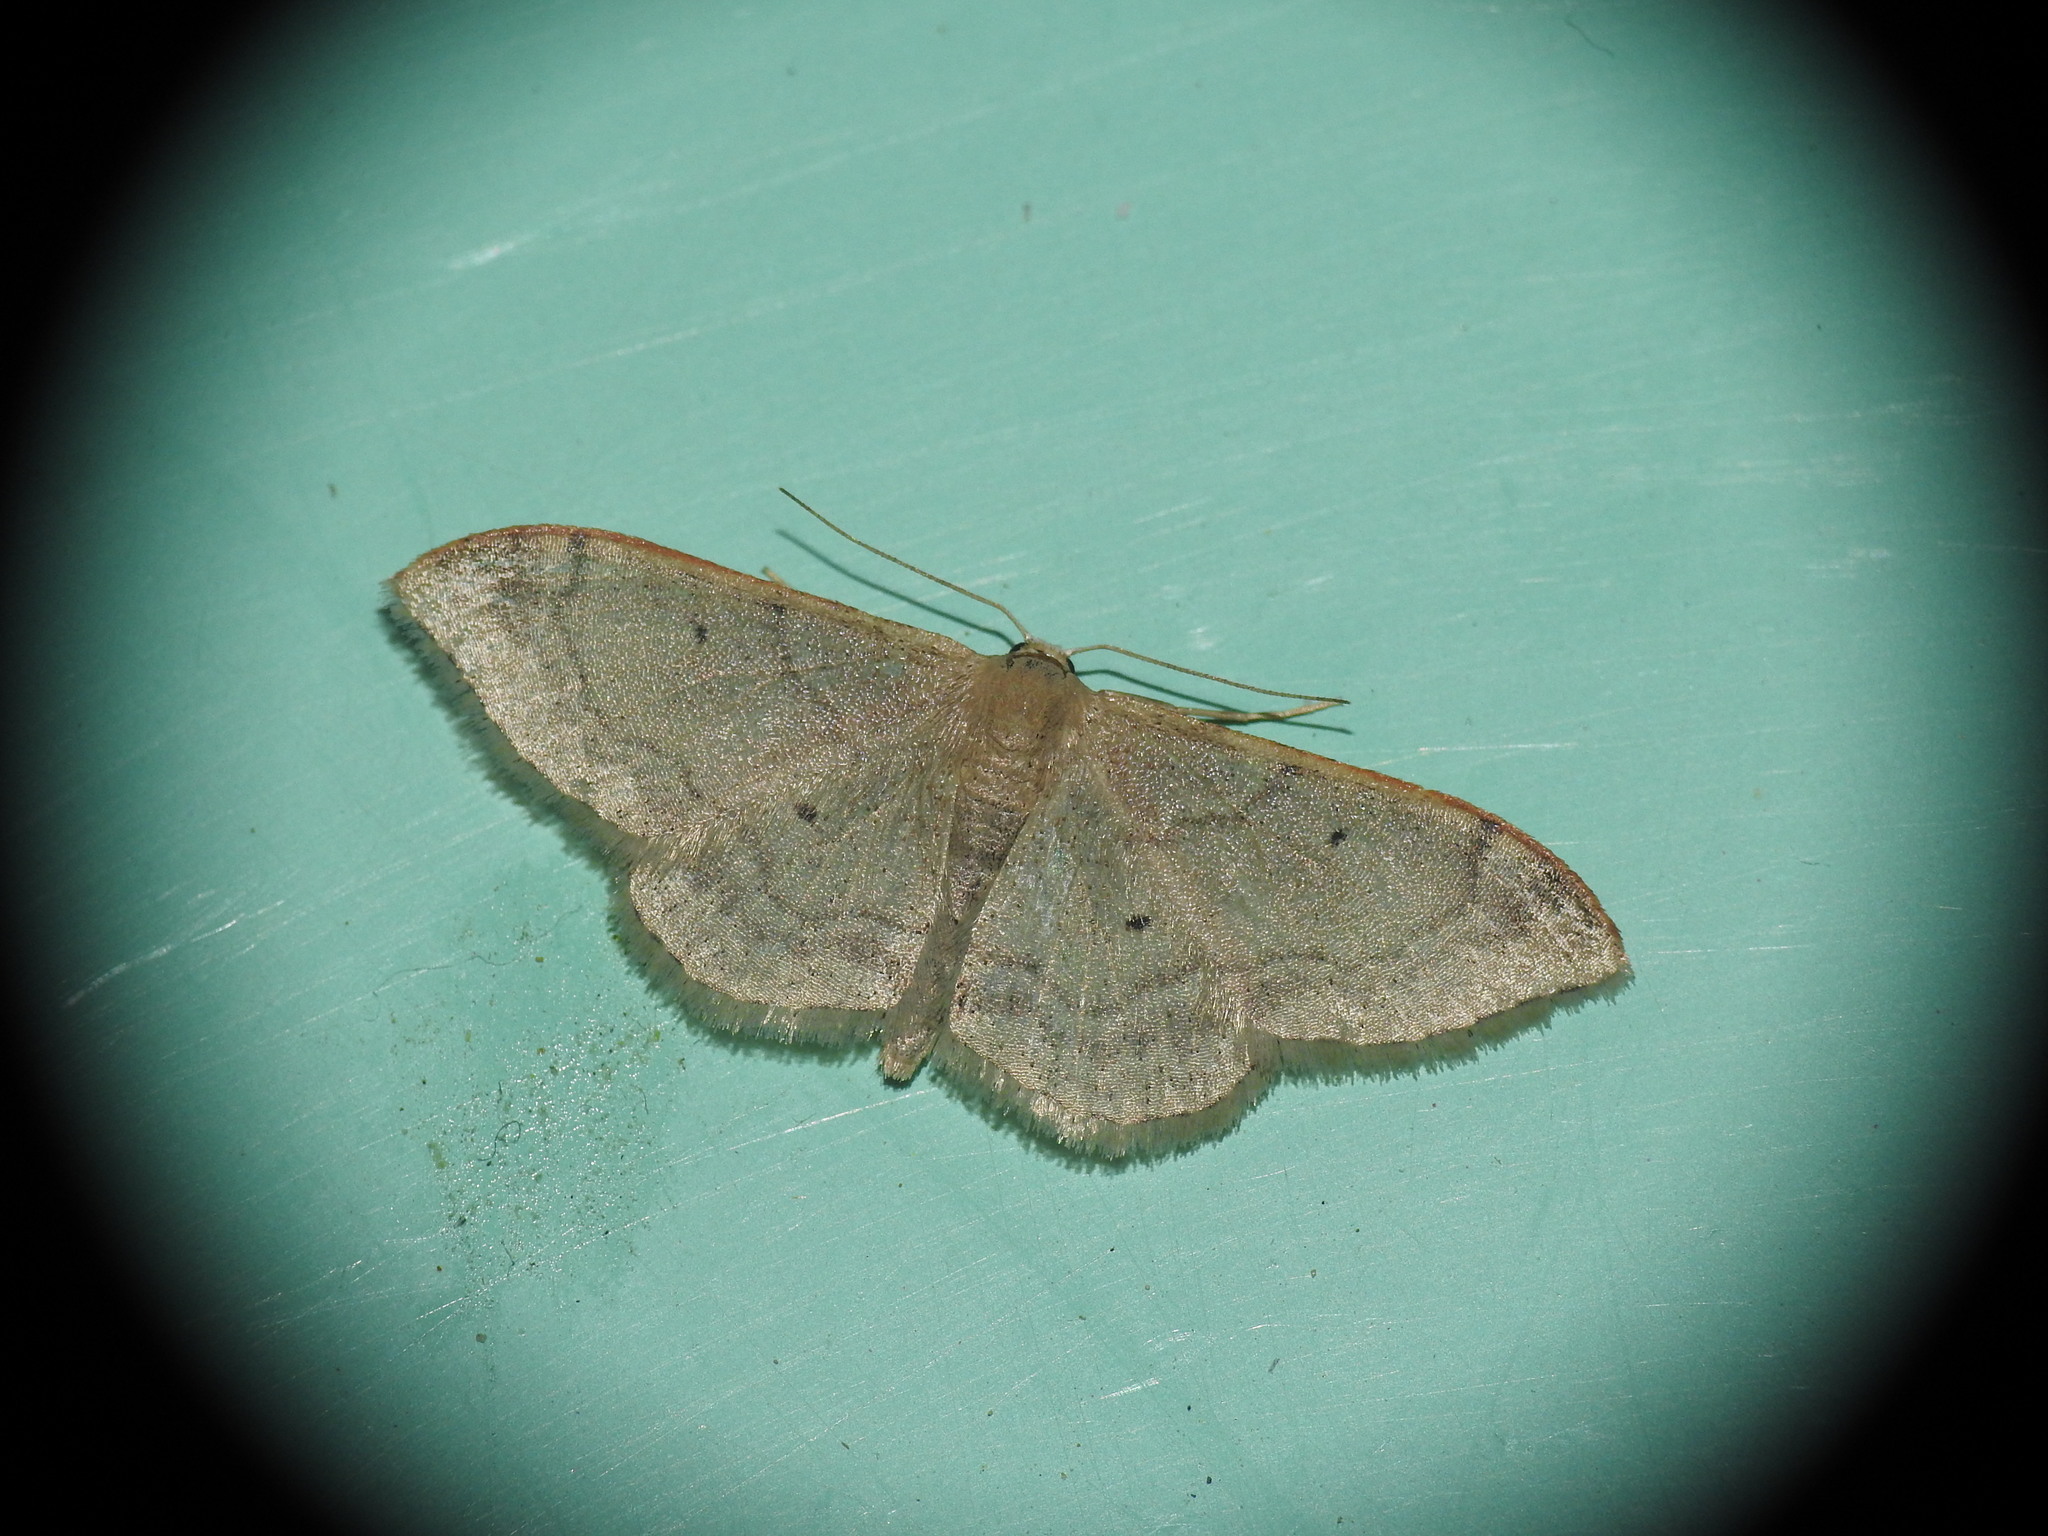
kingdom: Animalia
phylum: Arthropoda
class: Insecta
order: Lepidoptera
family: Geometridae
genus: Idaea
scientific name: Idaea degeneraria
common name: Portland ribbon wave
